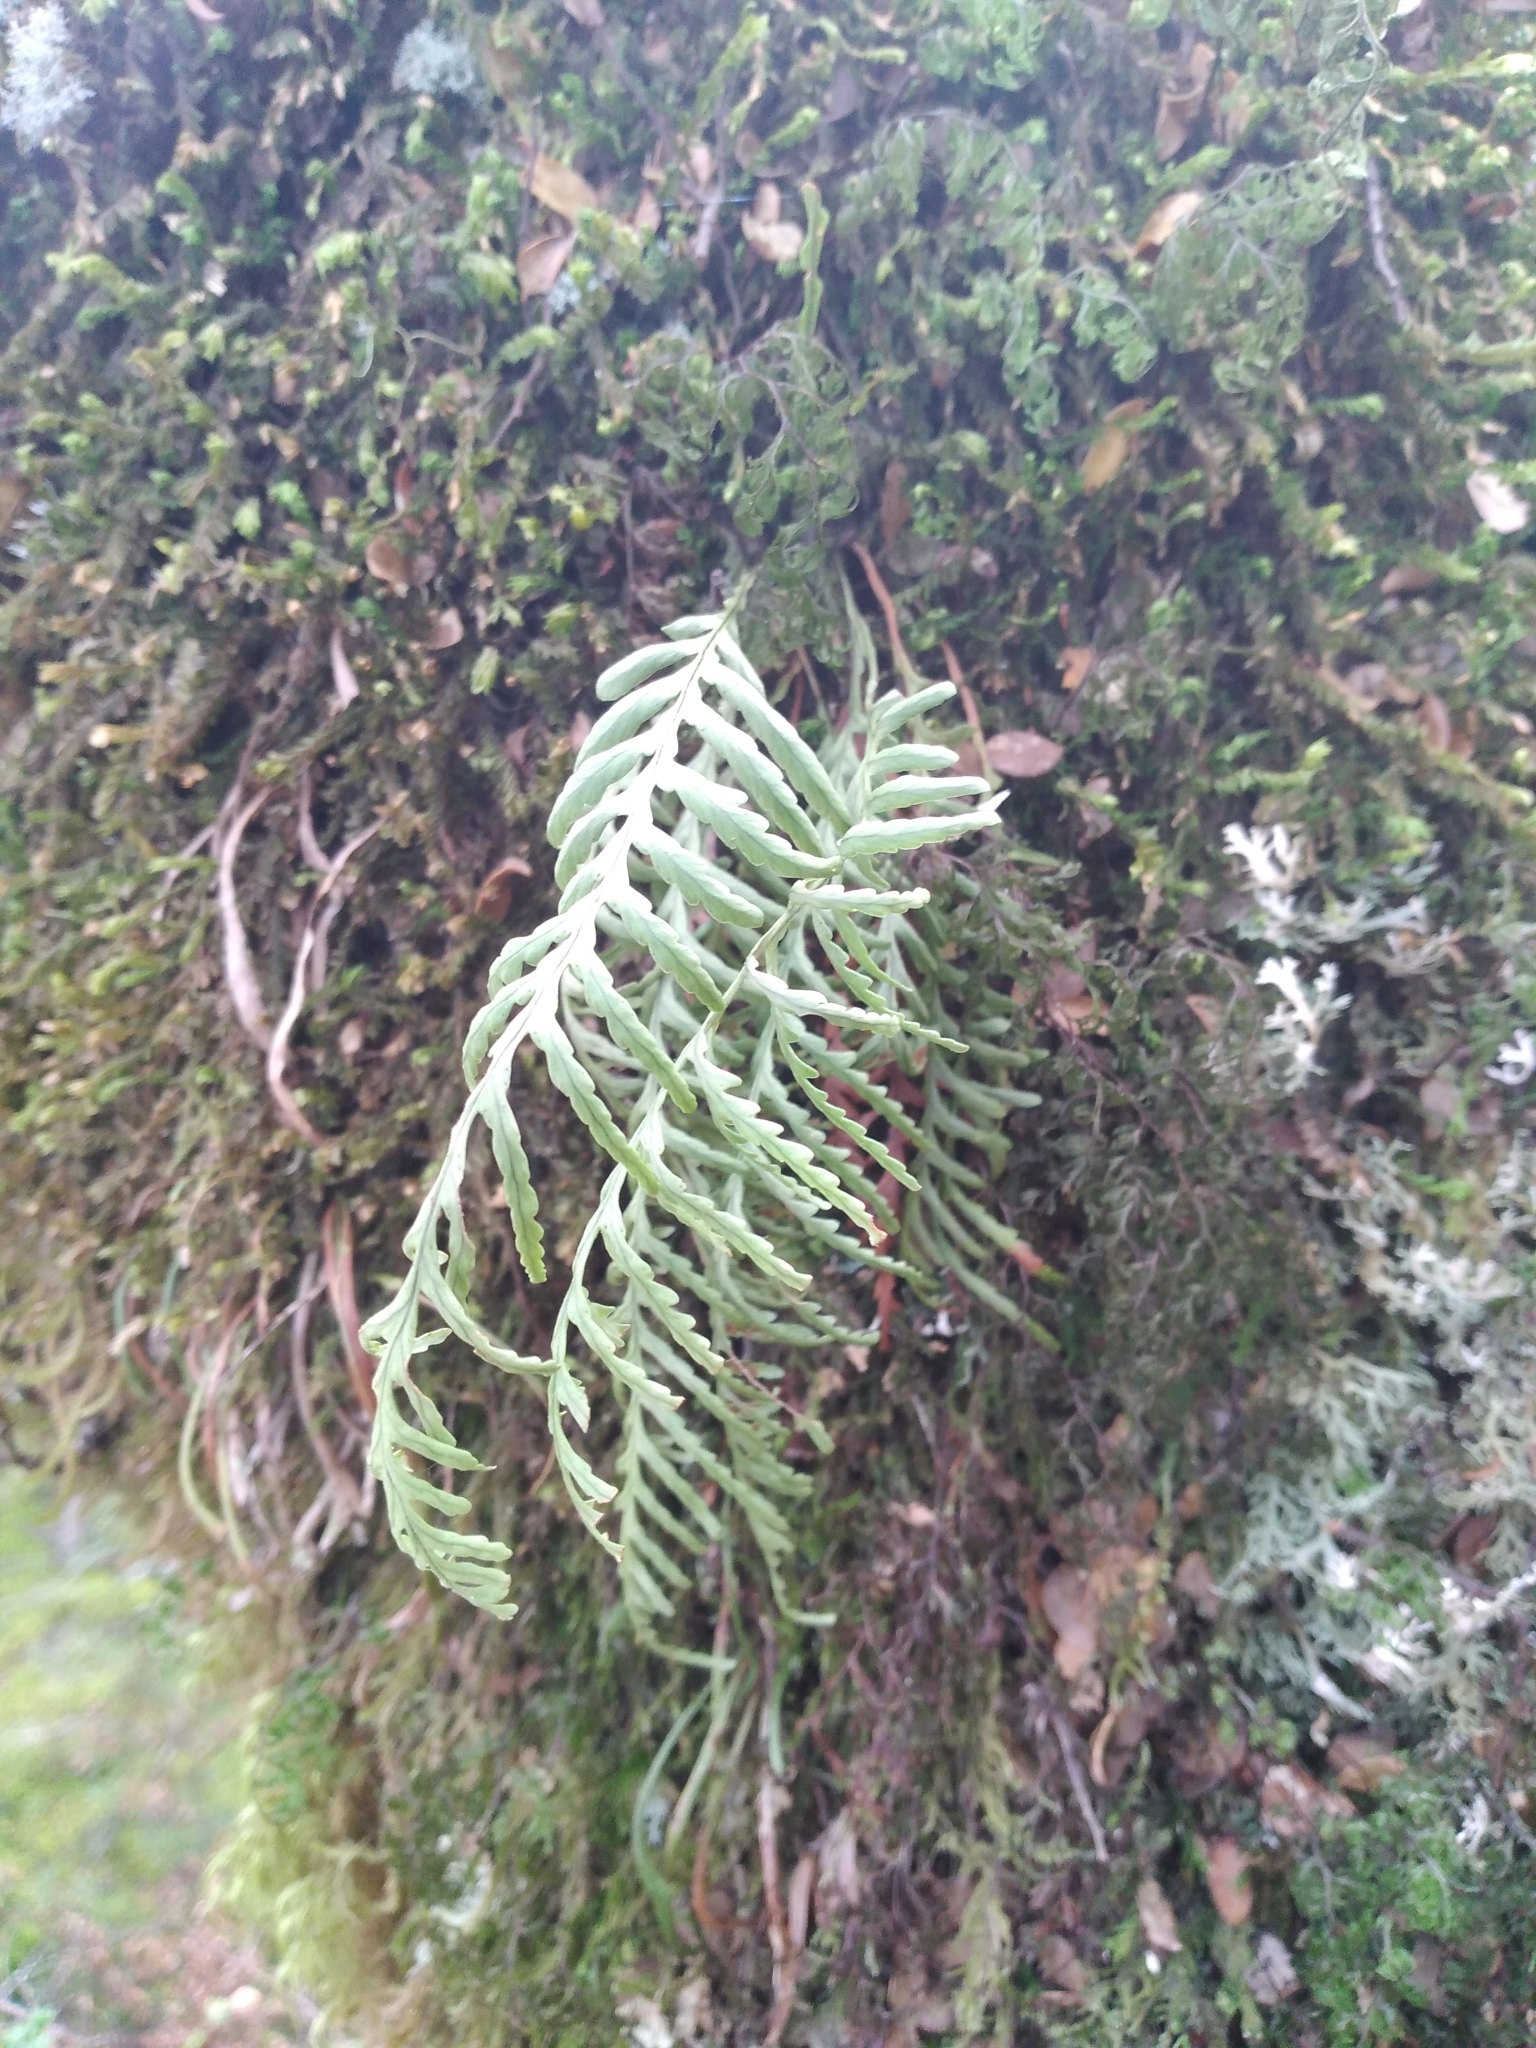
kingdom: Plantae
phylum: Tracheophyta
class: Polypodiopsida
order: Polypodiales
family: Polypodiaceae
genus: Notogrammitis
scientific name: Notogrammitis heterophylla
